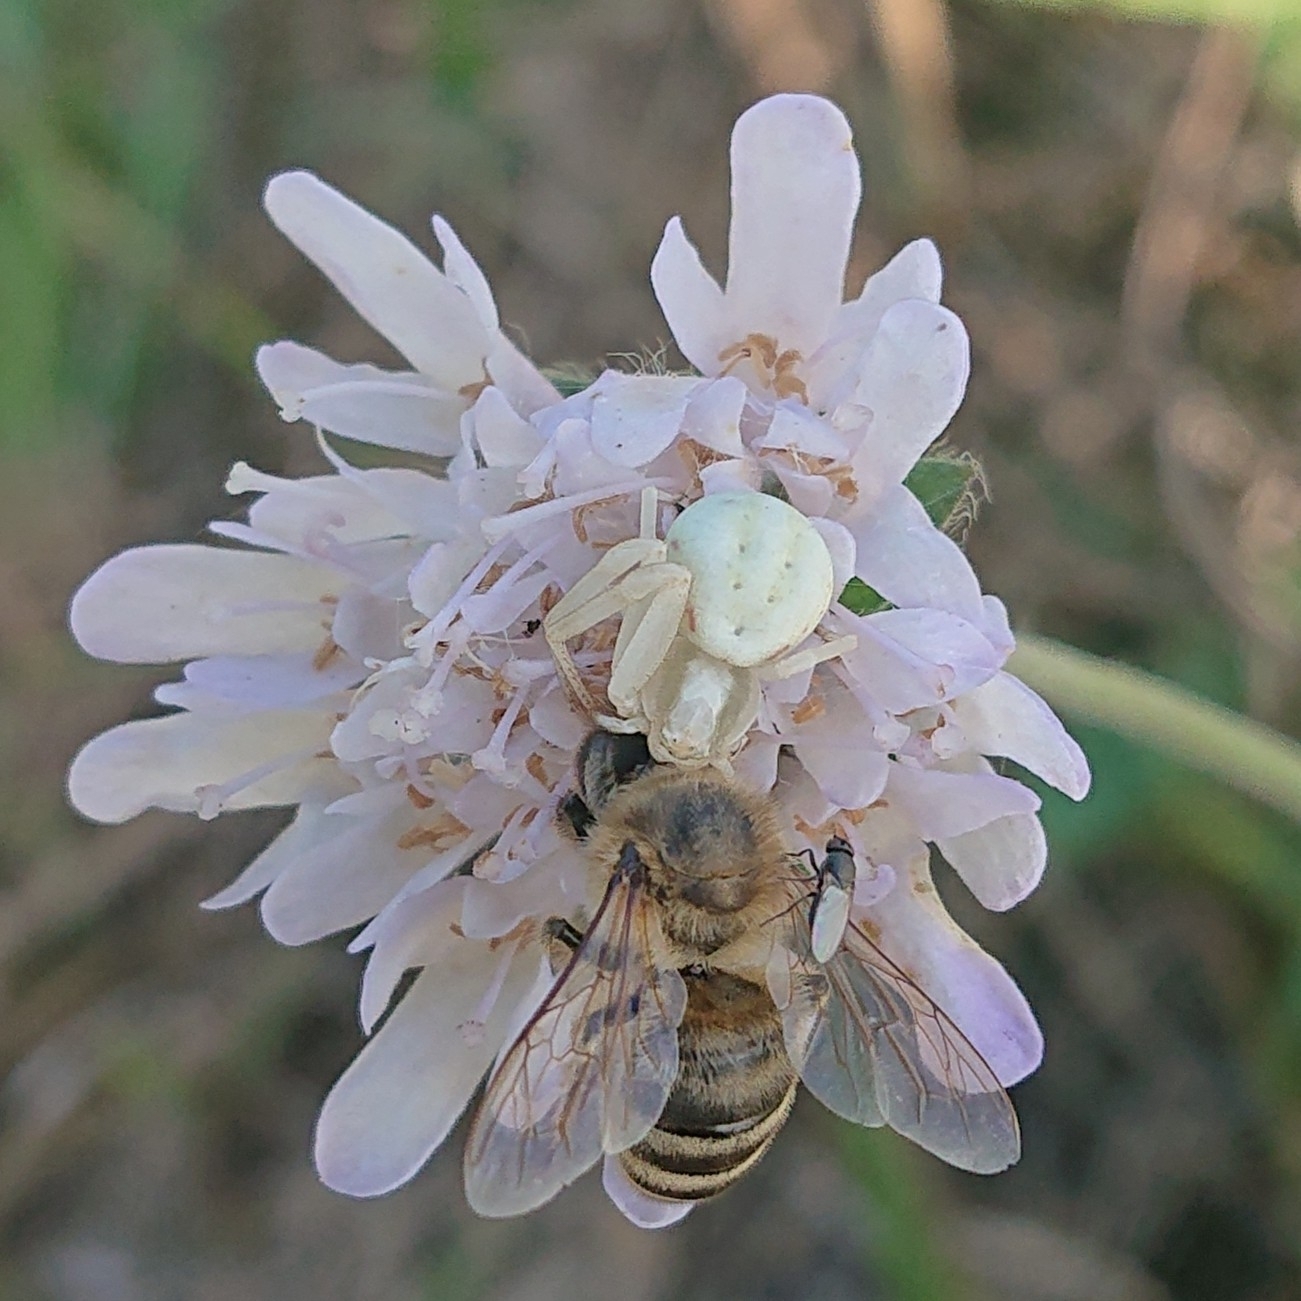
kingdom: Animalia
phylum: Arthropoda
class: Arachnida
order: Araneae
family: Thomisidae
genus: Misumena
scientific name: Misumena vatia
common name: Goldenrod crab spider
